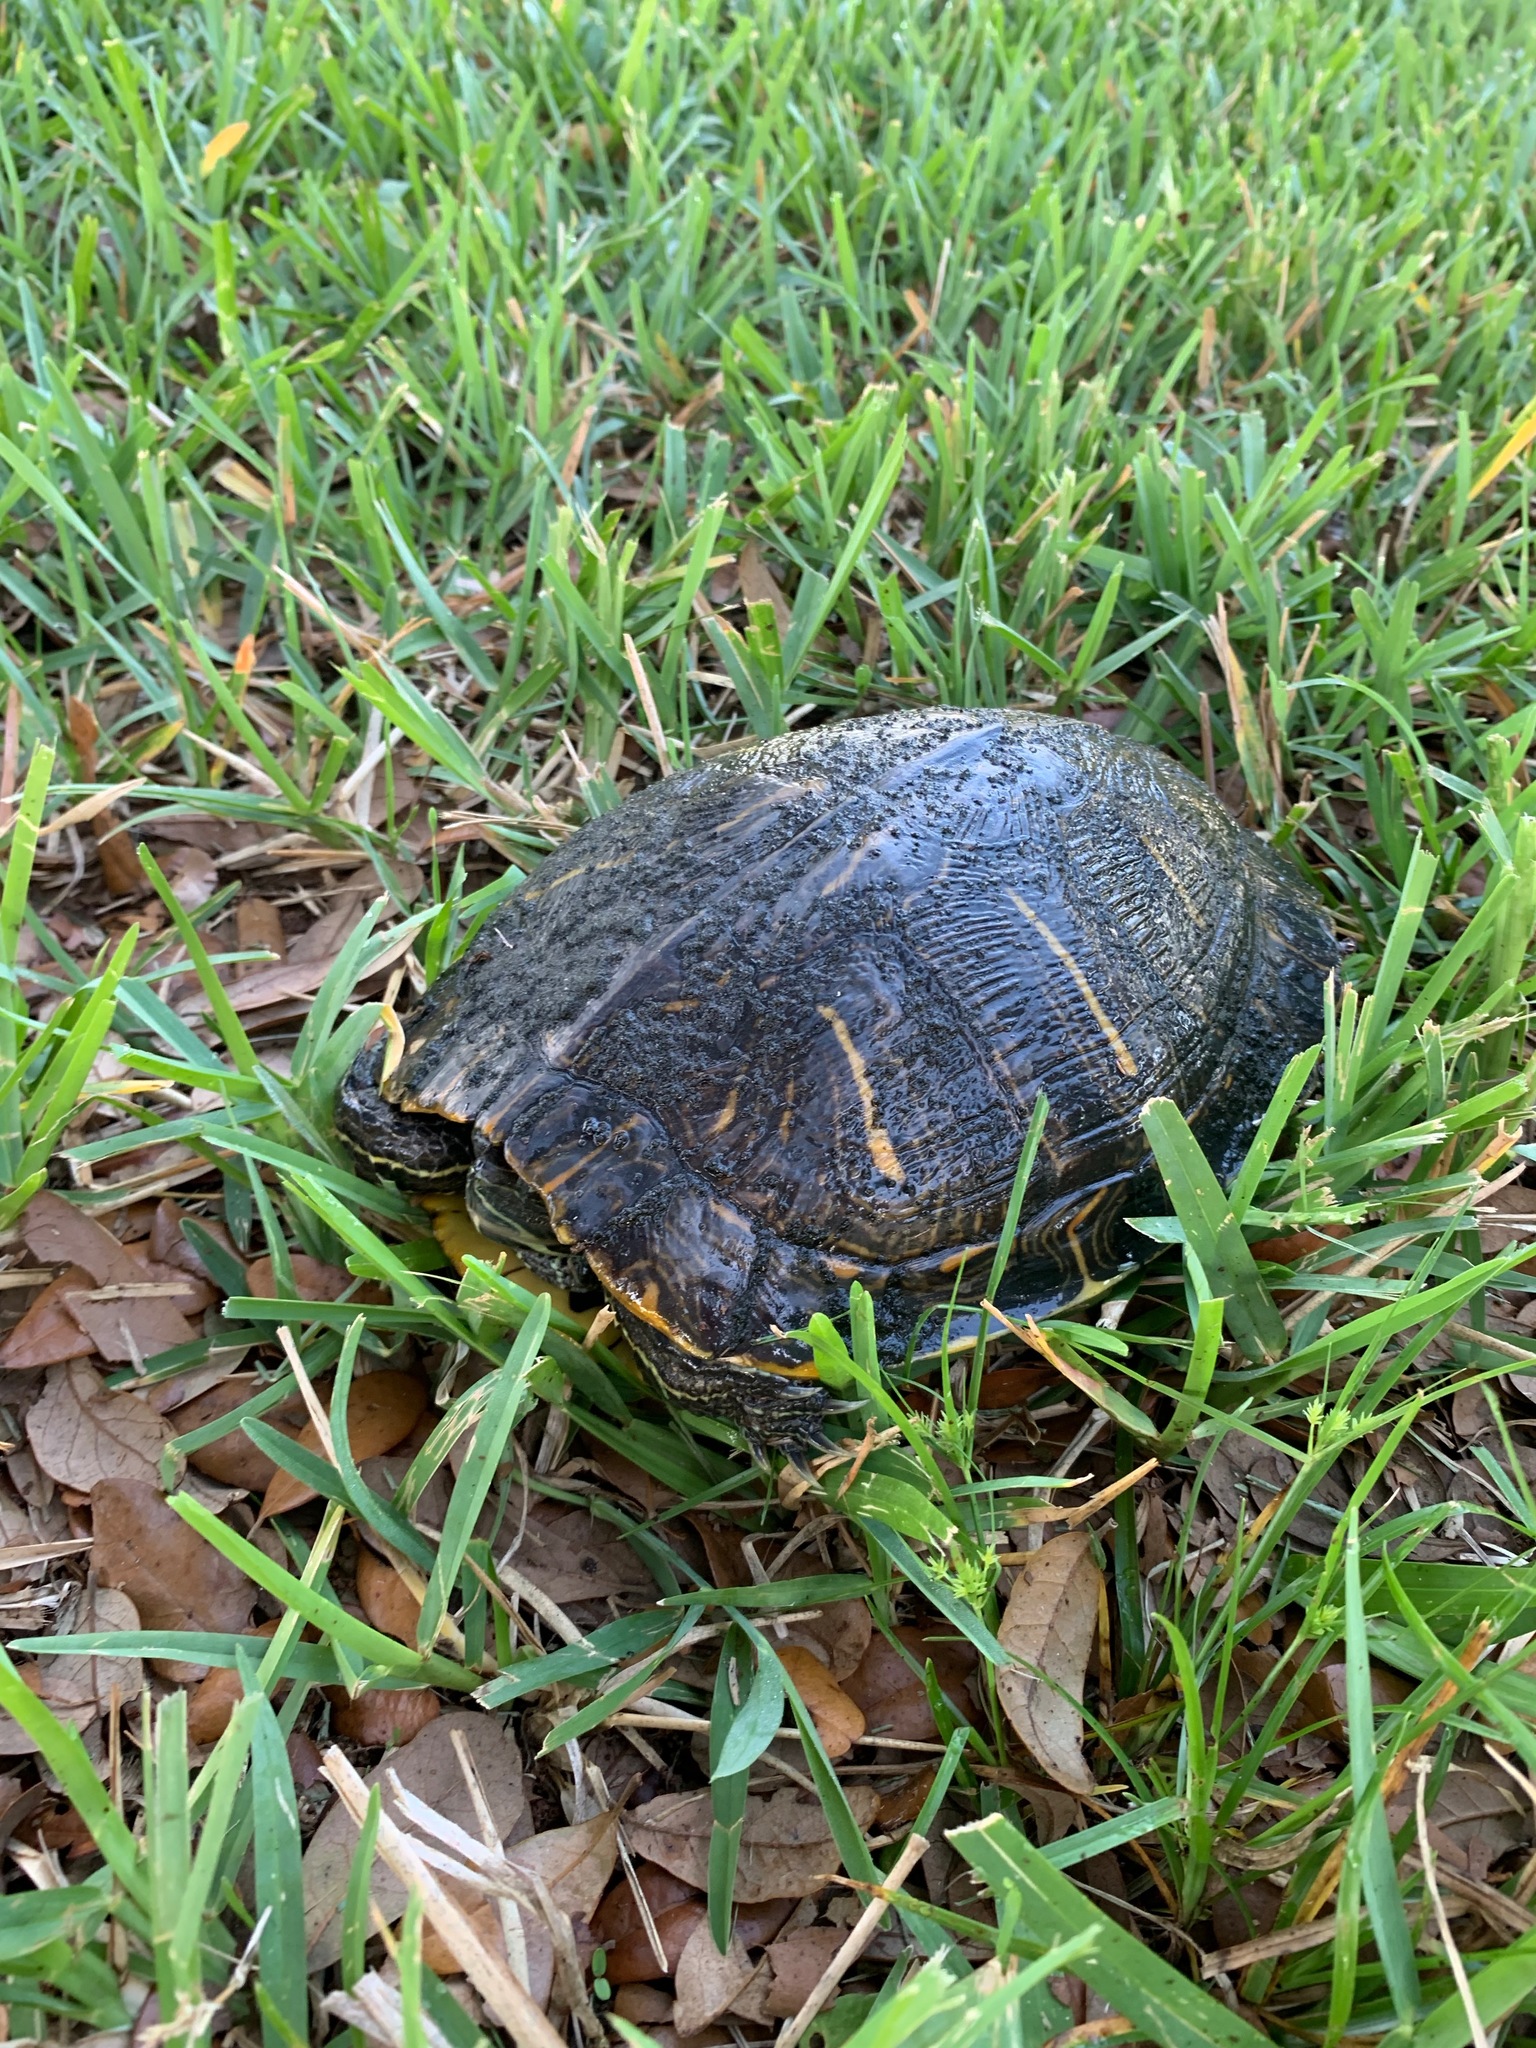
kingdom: Animalia
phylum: Chordata
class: Testudines
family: Emydidae
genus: Trachemys
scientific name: Trachemys scripta
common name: Slider
